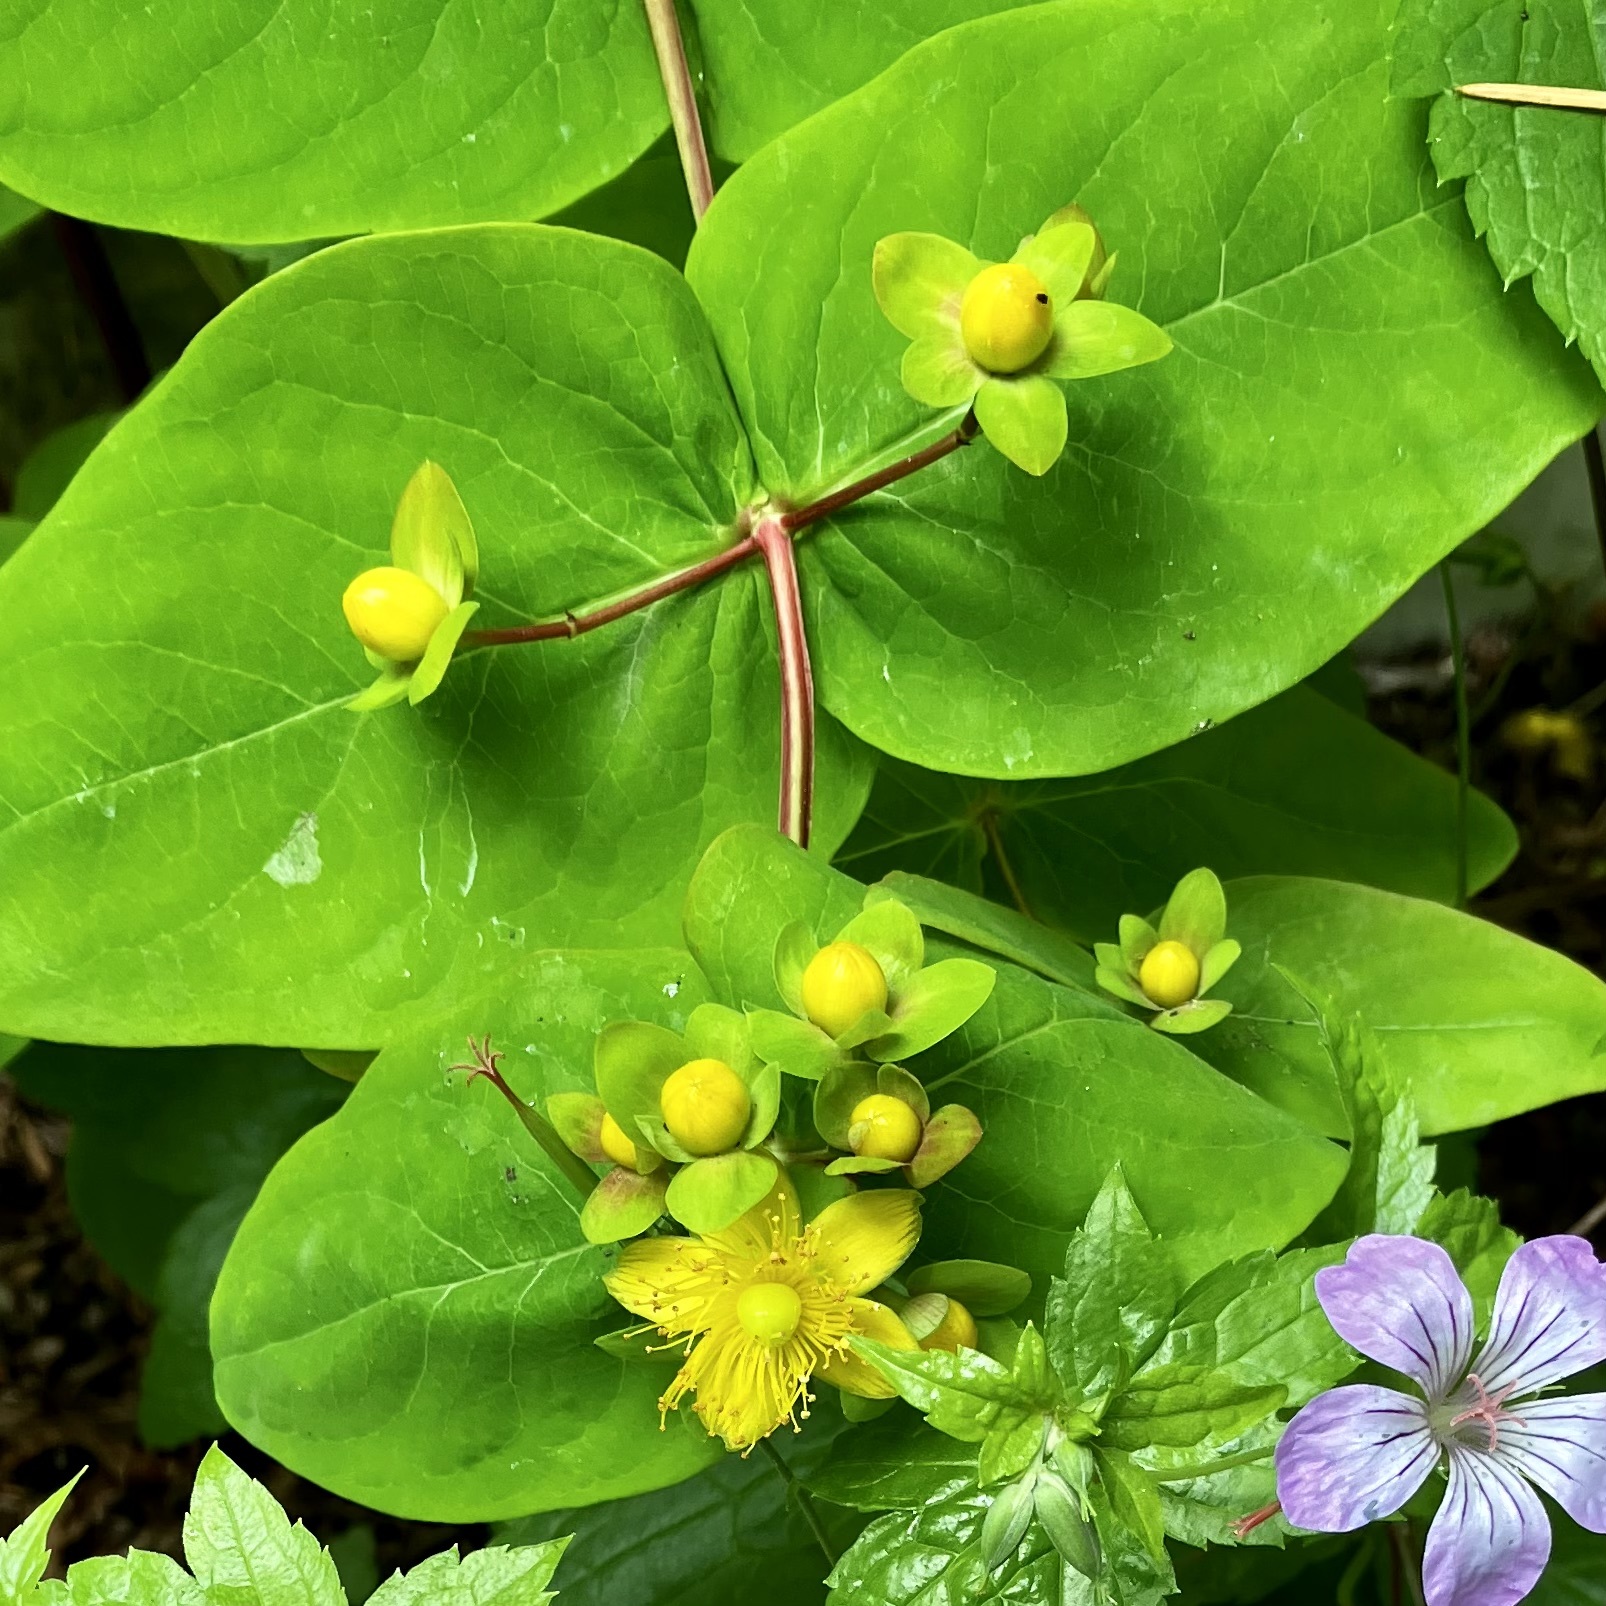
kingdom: Plantae
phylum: Tracheophyta
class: Magnoliopsida
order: Malpighiales
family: Hypericaceae
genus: Hypericum
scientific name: Hypericum androsaemum
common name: Sweet-amber
